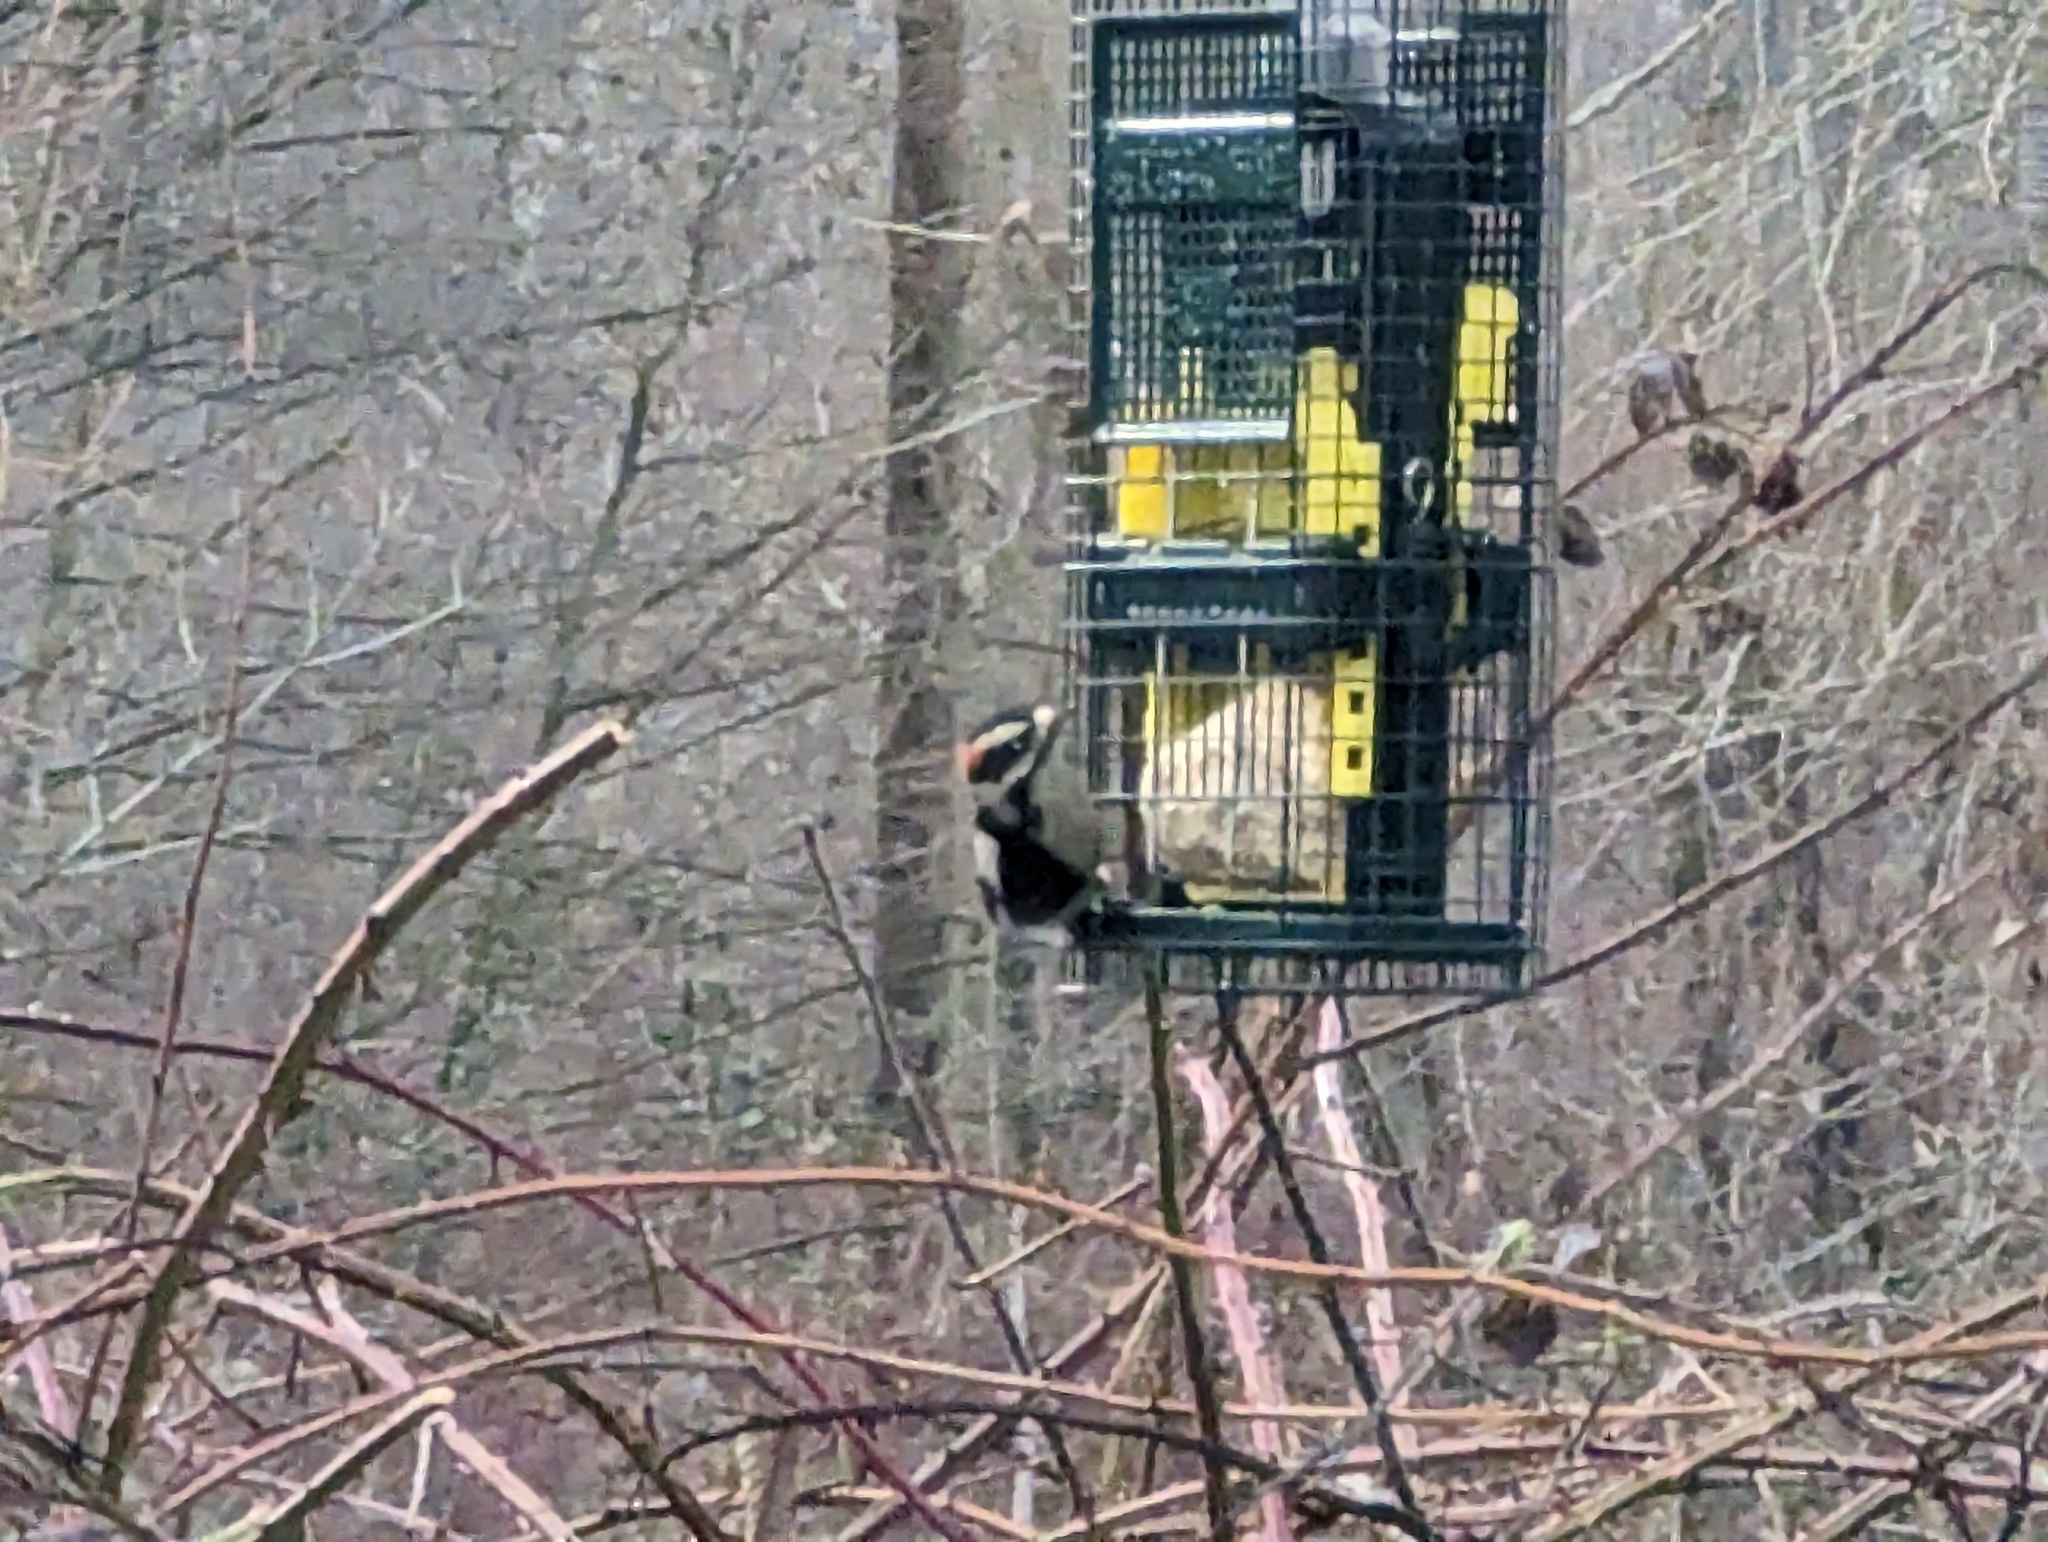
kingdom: Animalia
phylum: Chordata
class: Aves
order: Piciformes
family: Picidae
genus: Leuconotopicus
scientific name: Leuconotopicus villosus
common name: Hairy woodpecker
